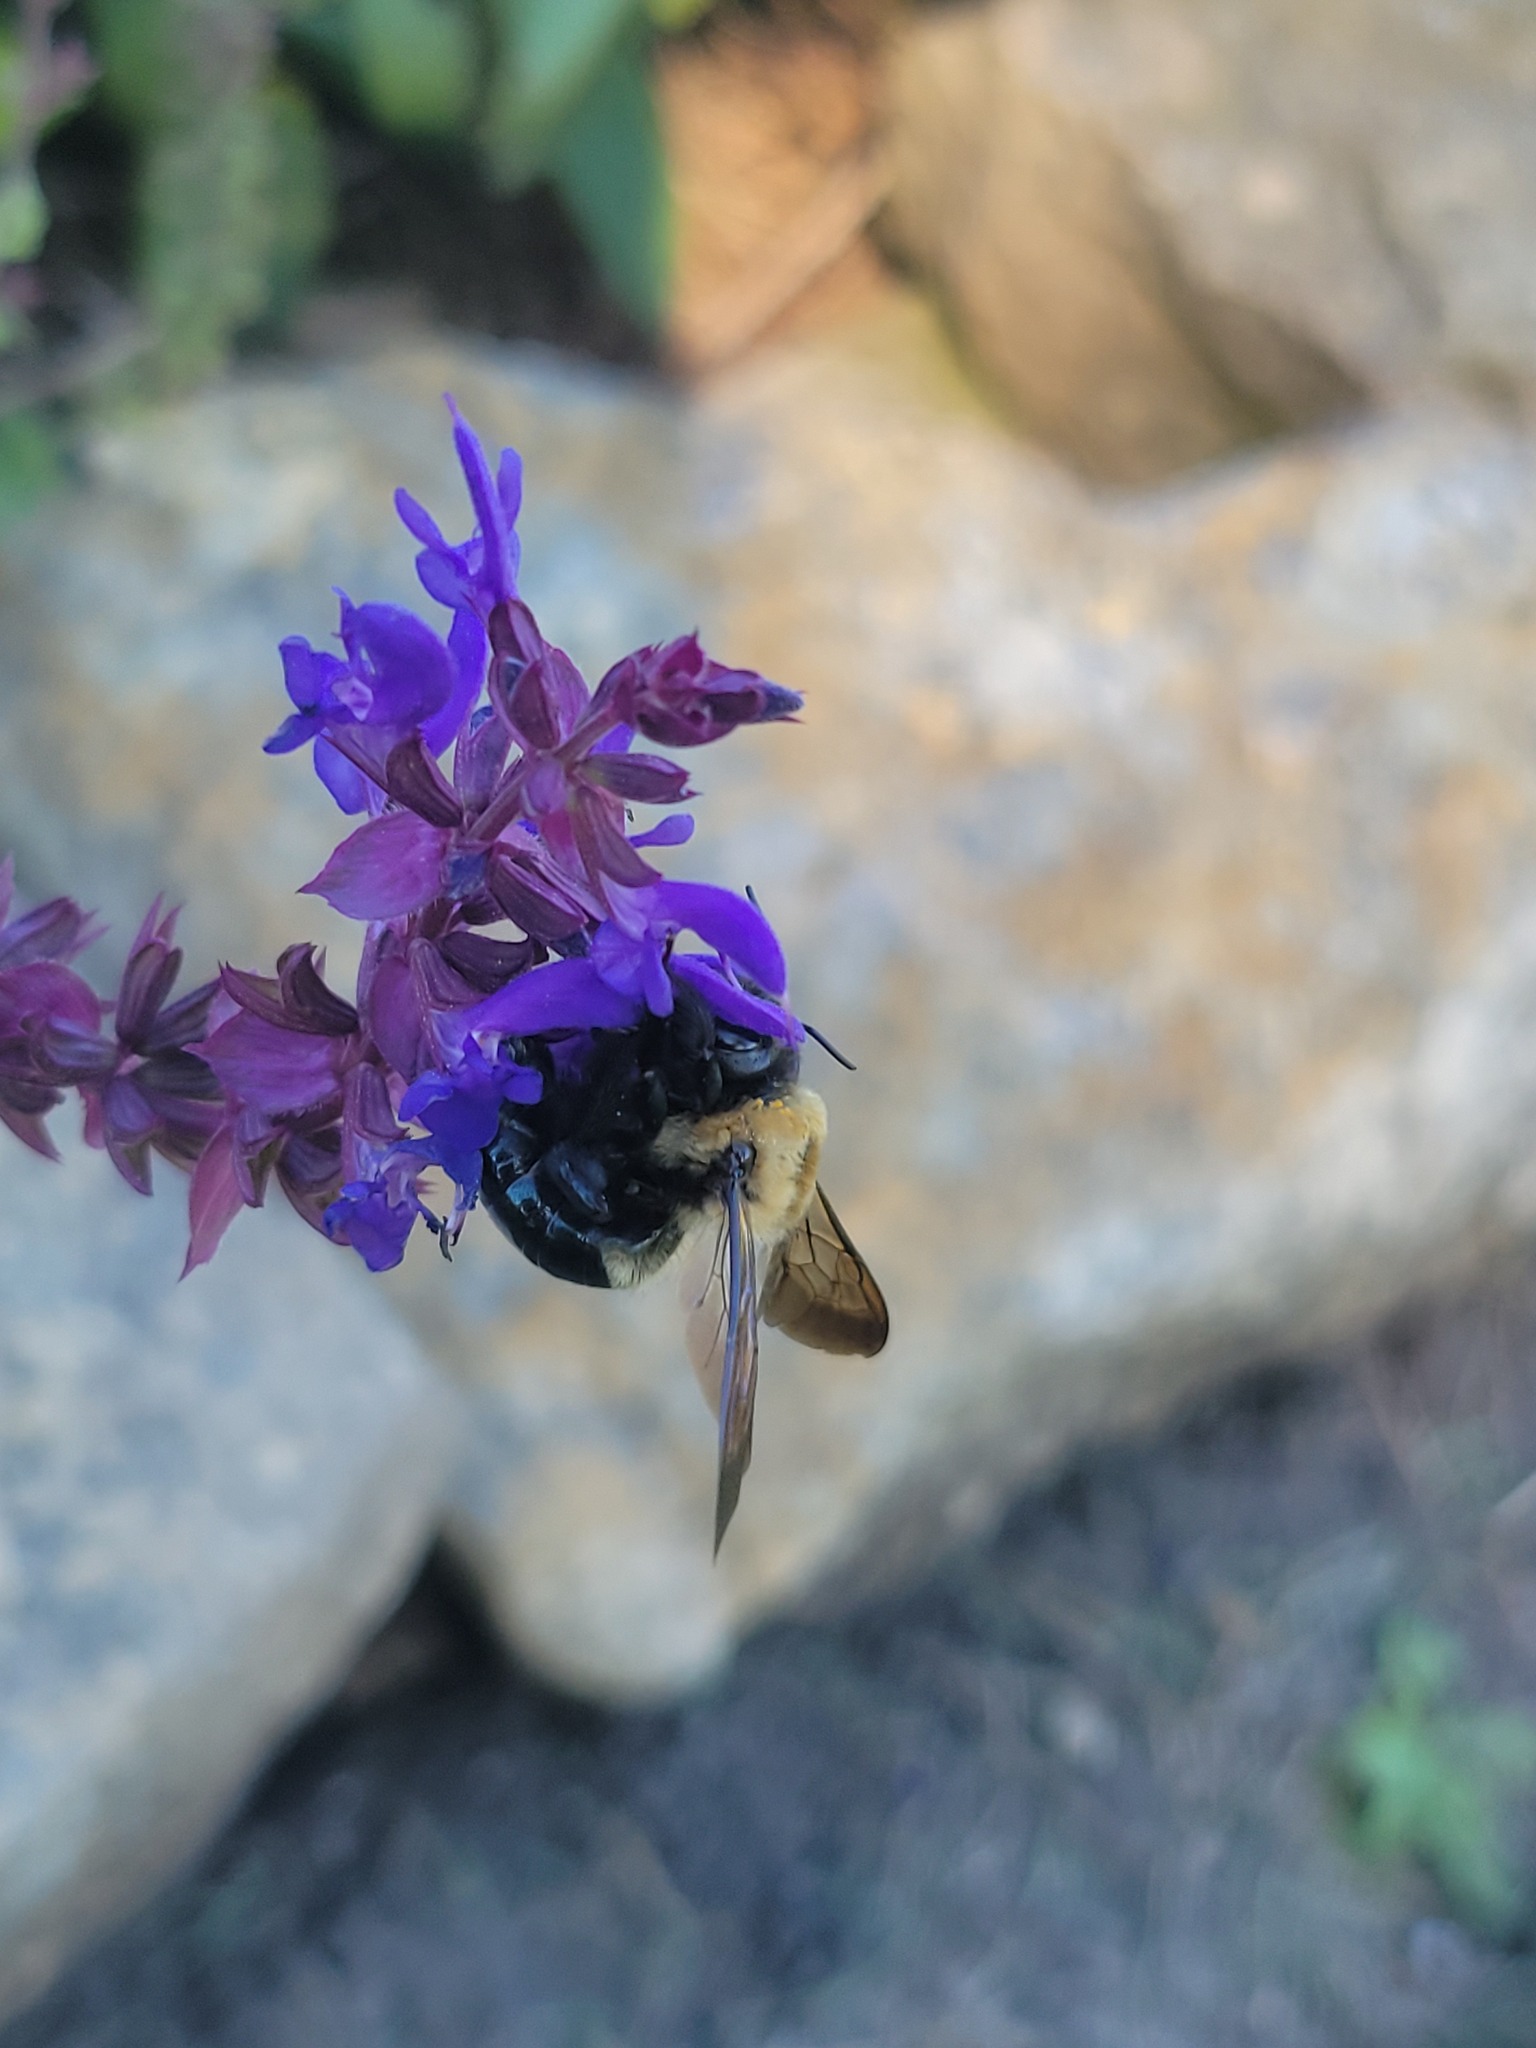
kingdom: Animalia
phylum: Arthropoda
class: Insecta
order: Hymenoptera
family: Apidae
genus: Xylocopa
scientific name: Xylocopa virginica
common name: Carpenter bee
